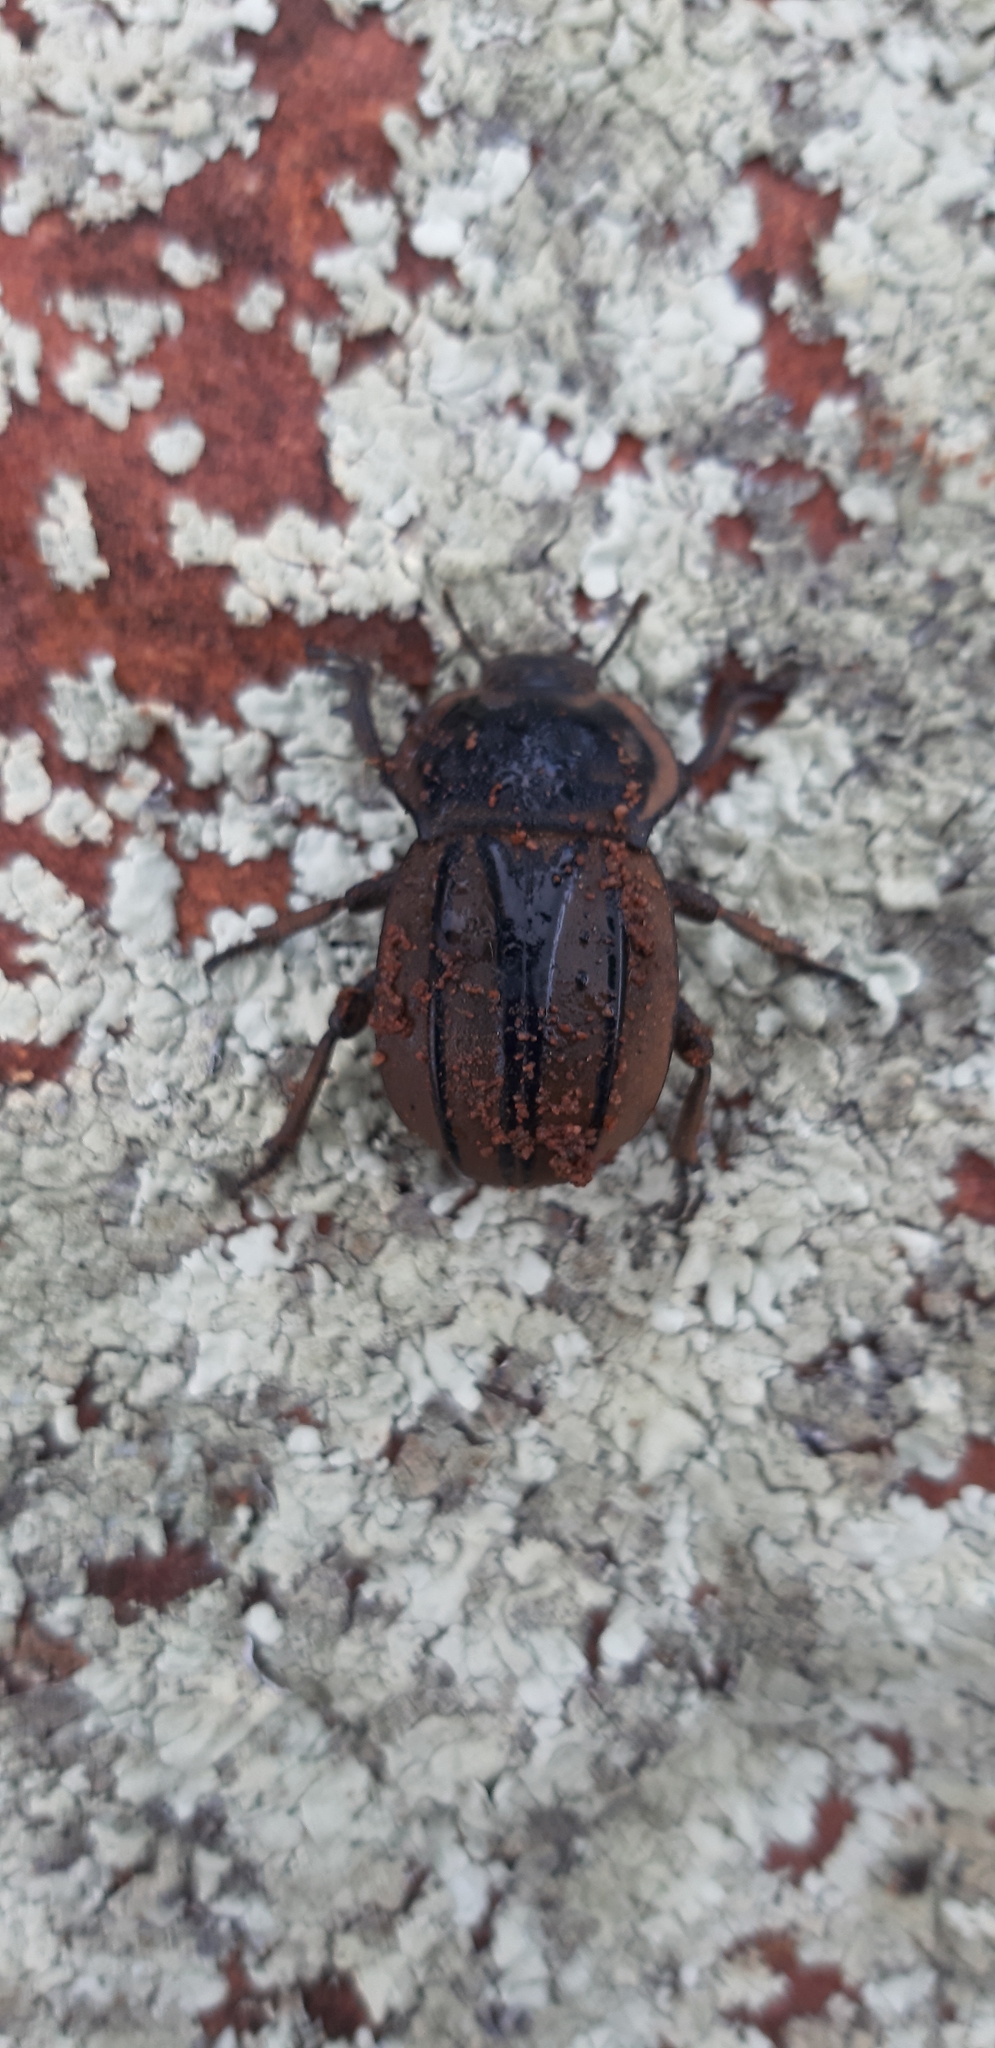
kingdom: Animalia
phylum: Arthropoda
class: Insecta
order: Coleoptera
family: Tenebrionidae
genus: Anomalipus
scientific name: Anomalipus
